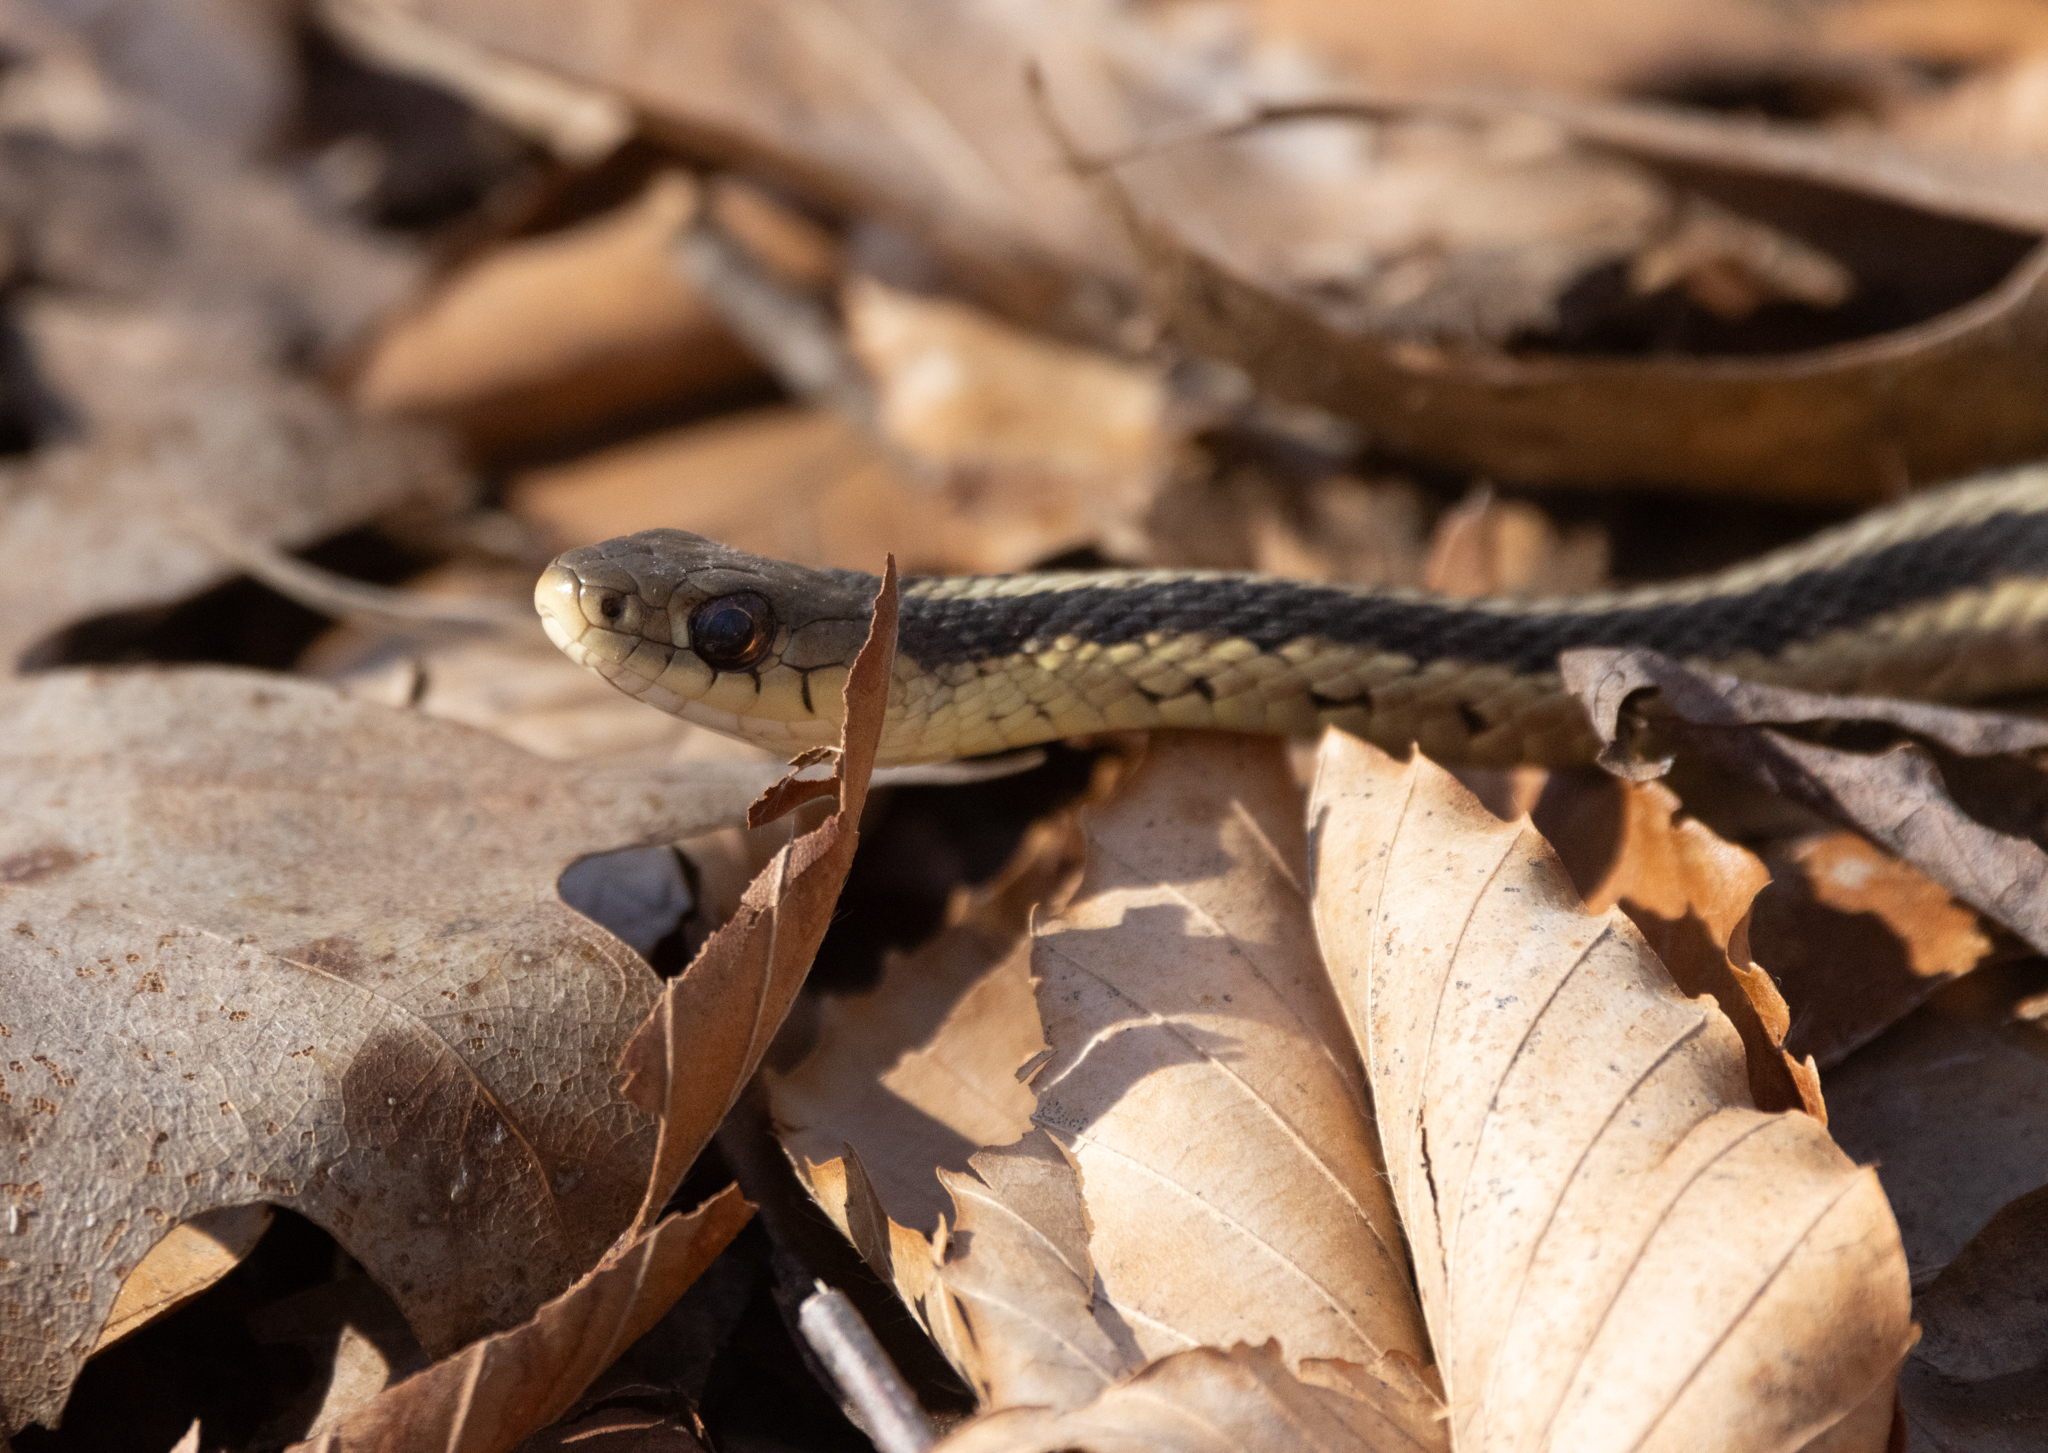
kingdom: Animalia
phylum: Chordata
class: Squamata
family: Colubridae
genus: Thamnophis
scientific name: Thamnophis sirtalis
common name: Common garter snake
